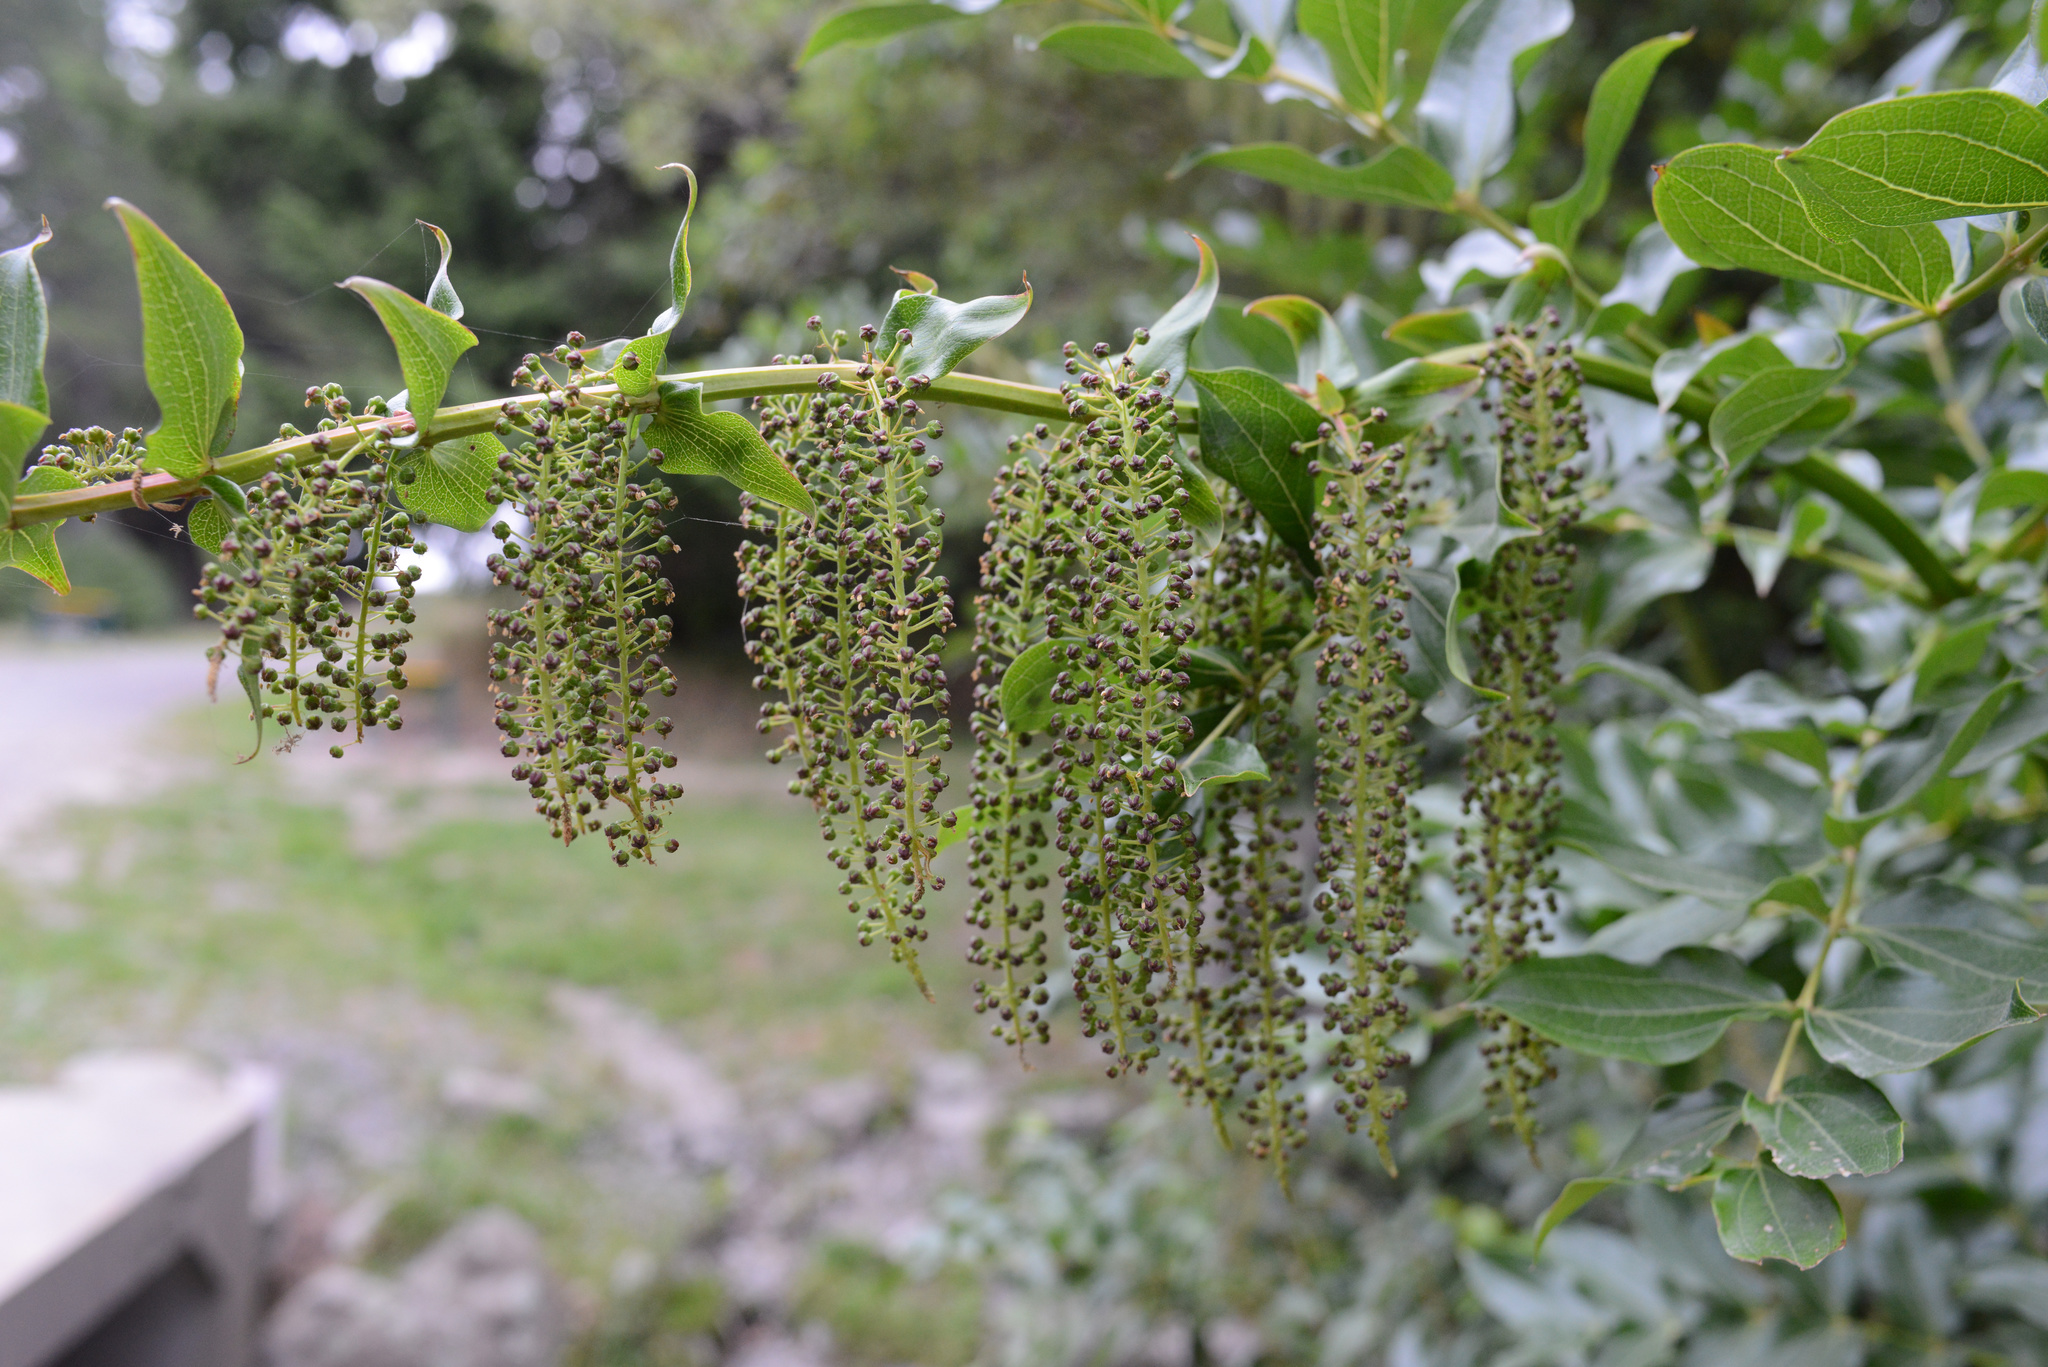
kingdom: Plantae
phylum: Tracheophyta
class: Magnoliopsida
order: Cucurbitales
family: Coriariaceae
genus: Coriaria
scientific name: Coriaria arborea
